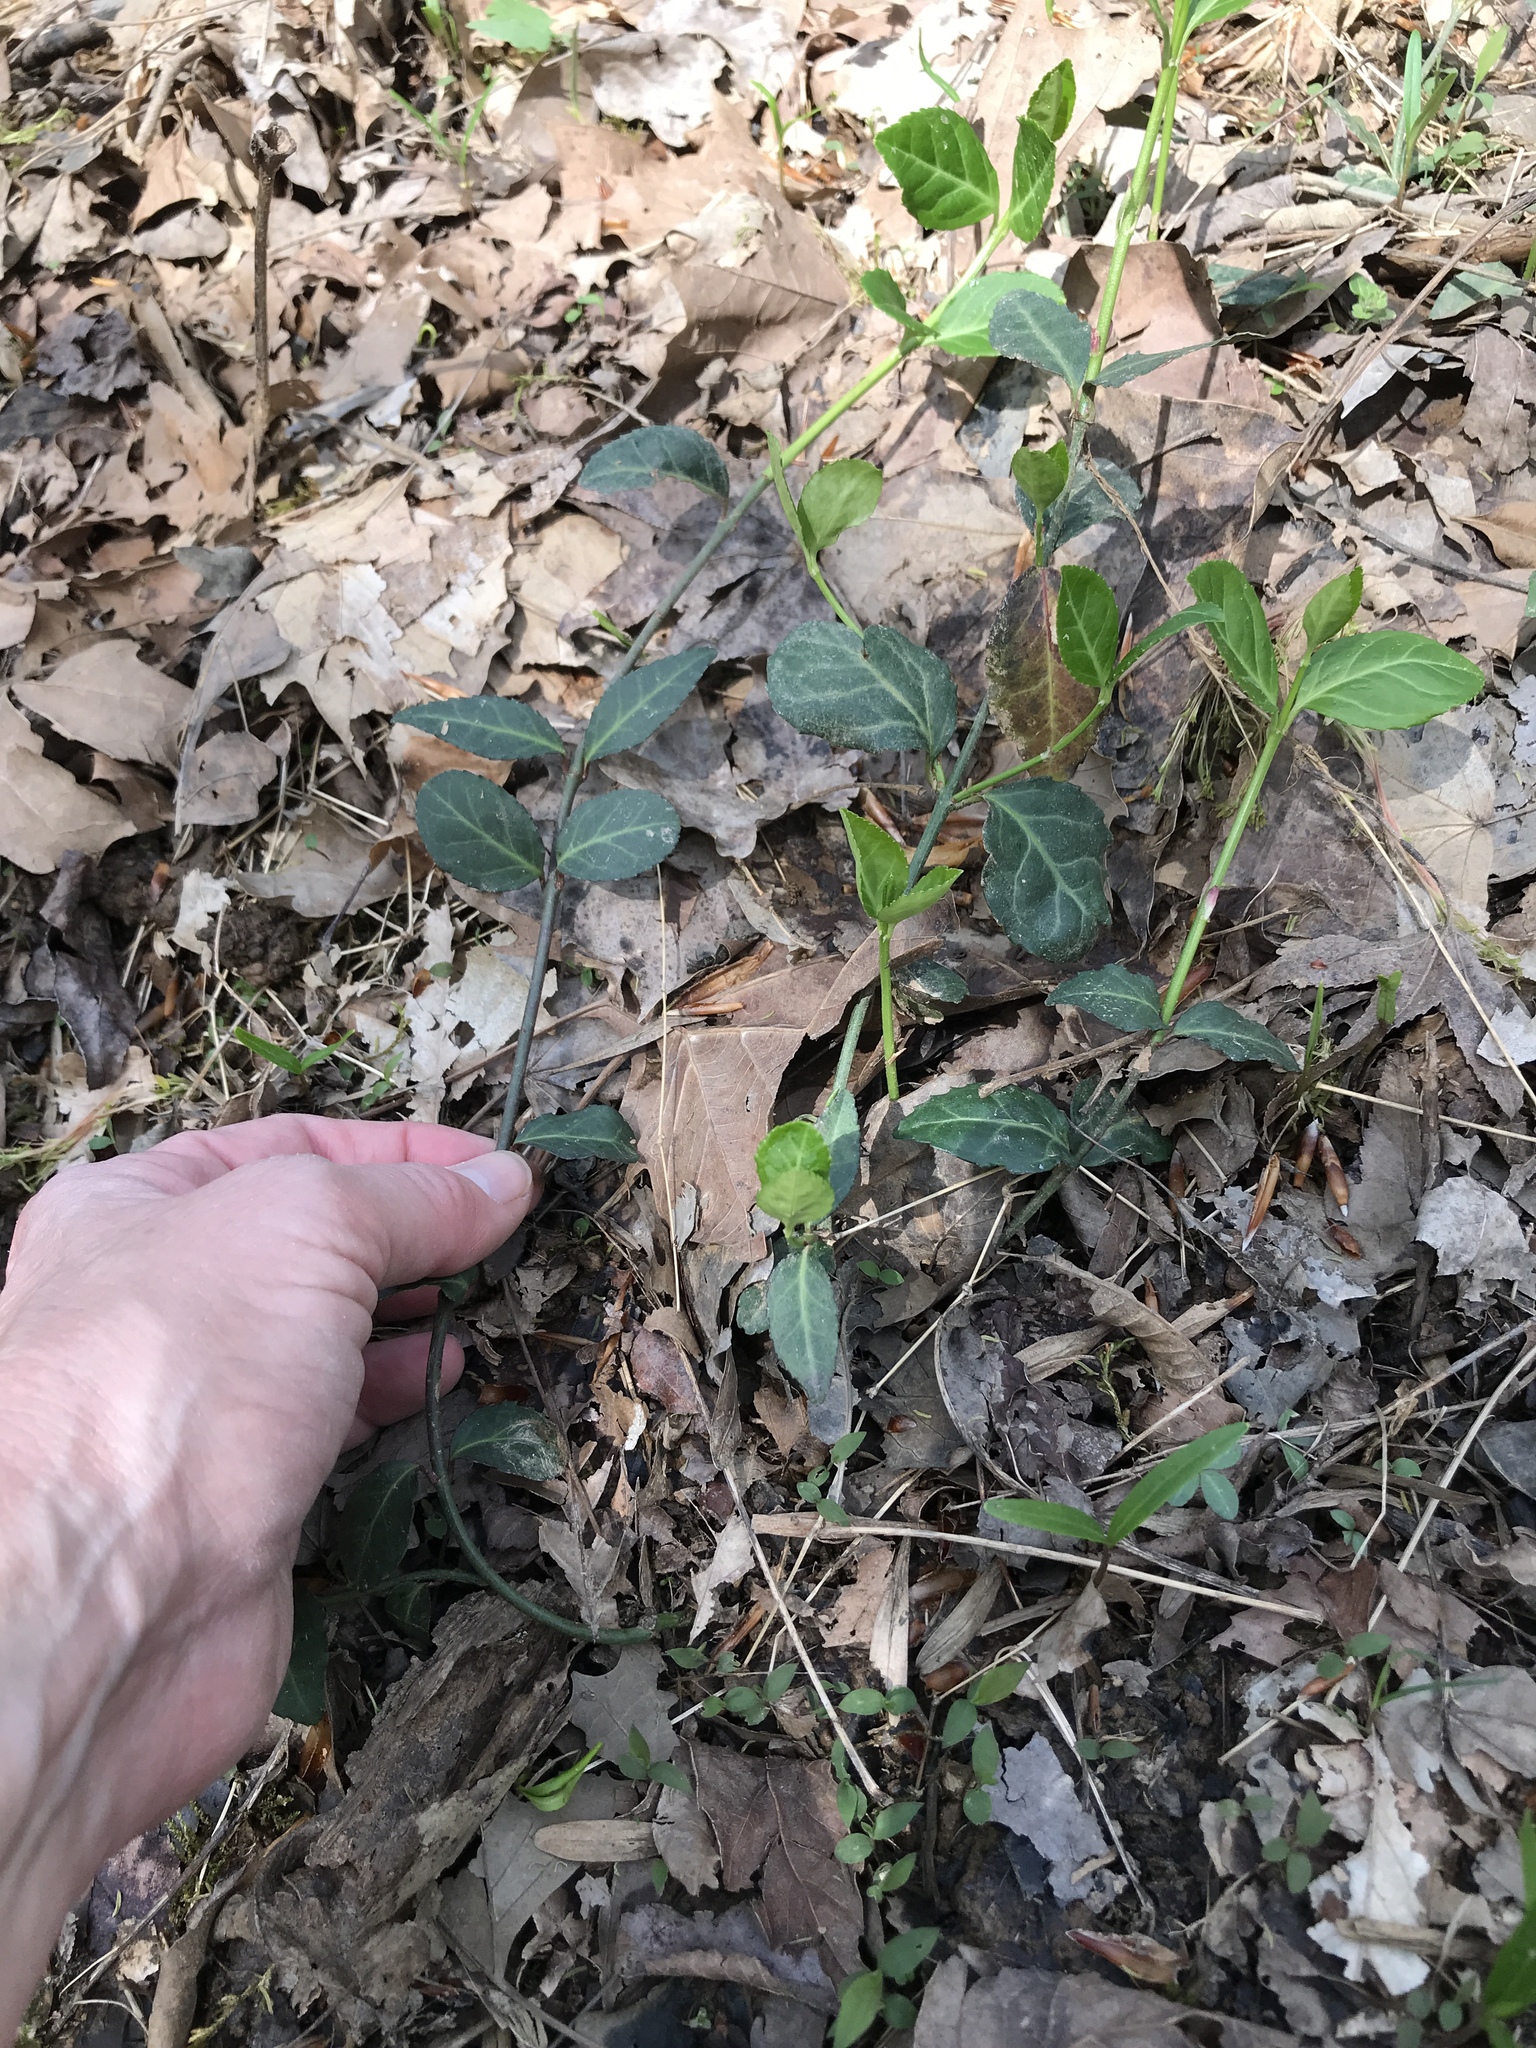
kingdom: Plantae
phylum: Tracheophyta
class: Magnoliopsida
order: Celastrales
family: Celastraceae
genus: Euonymus
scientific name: Euonymus fortunei
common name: Climbing euonymus
